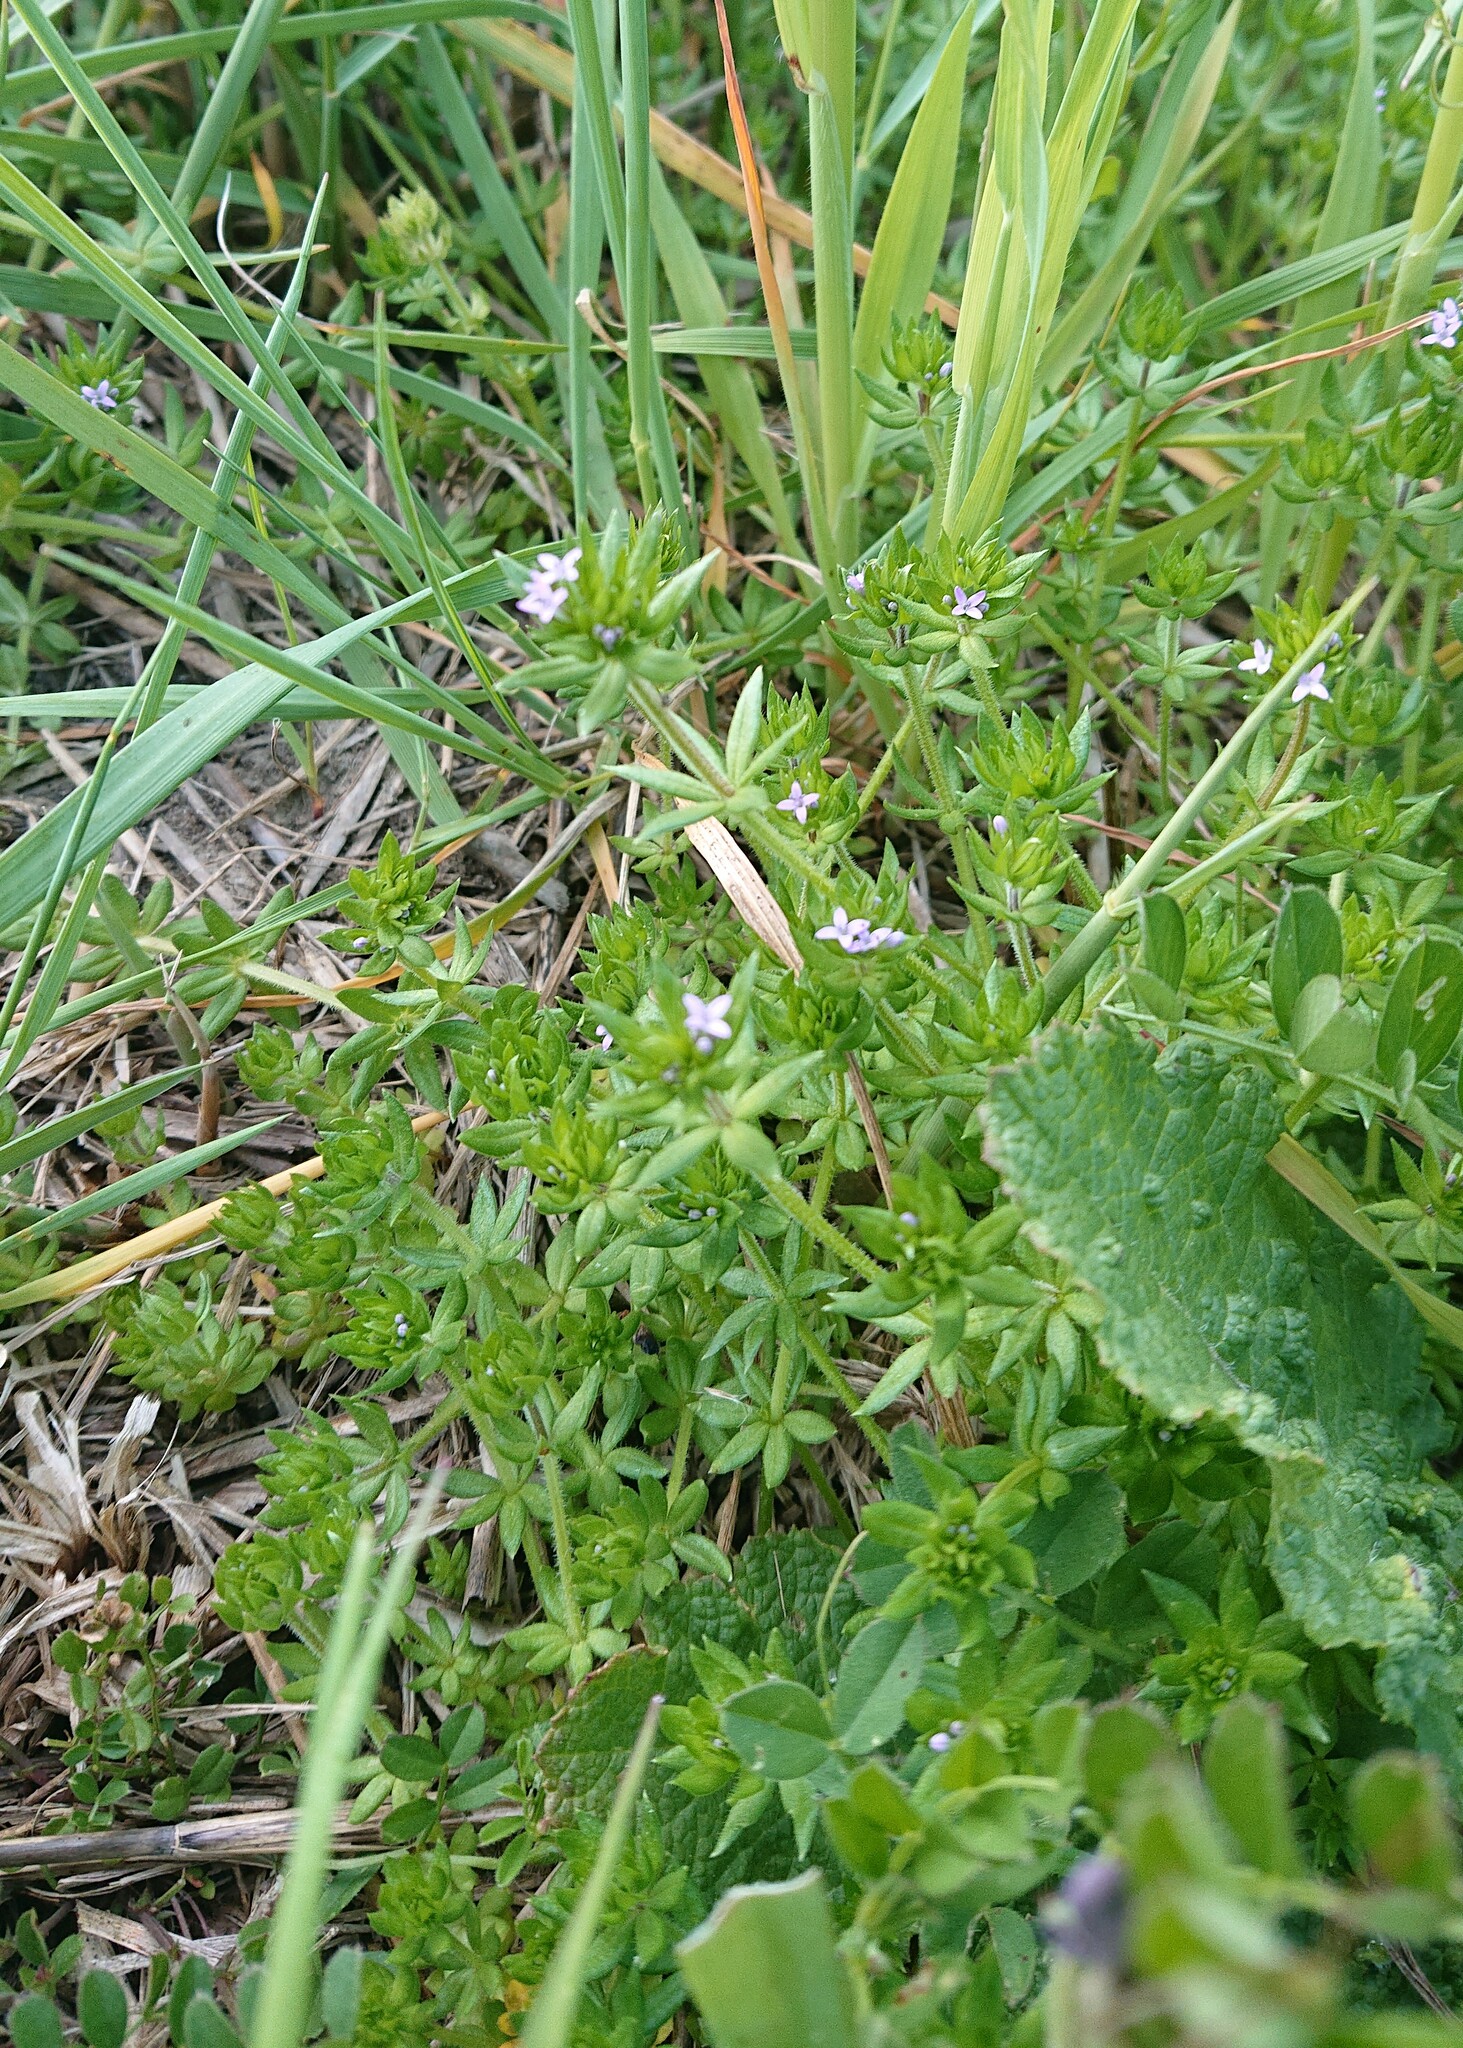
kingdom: Plantae
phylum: Tracheophyta
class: Magnoliopsida
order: Gentianales
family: Rubiaceae
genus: Sherardia
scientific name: Sherardia arvensis
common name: Field madder
